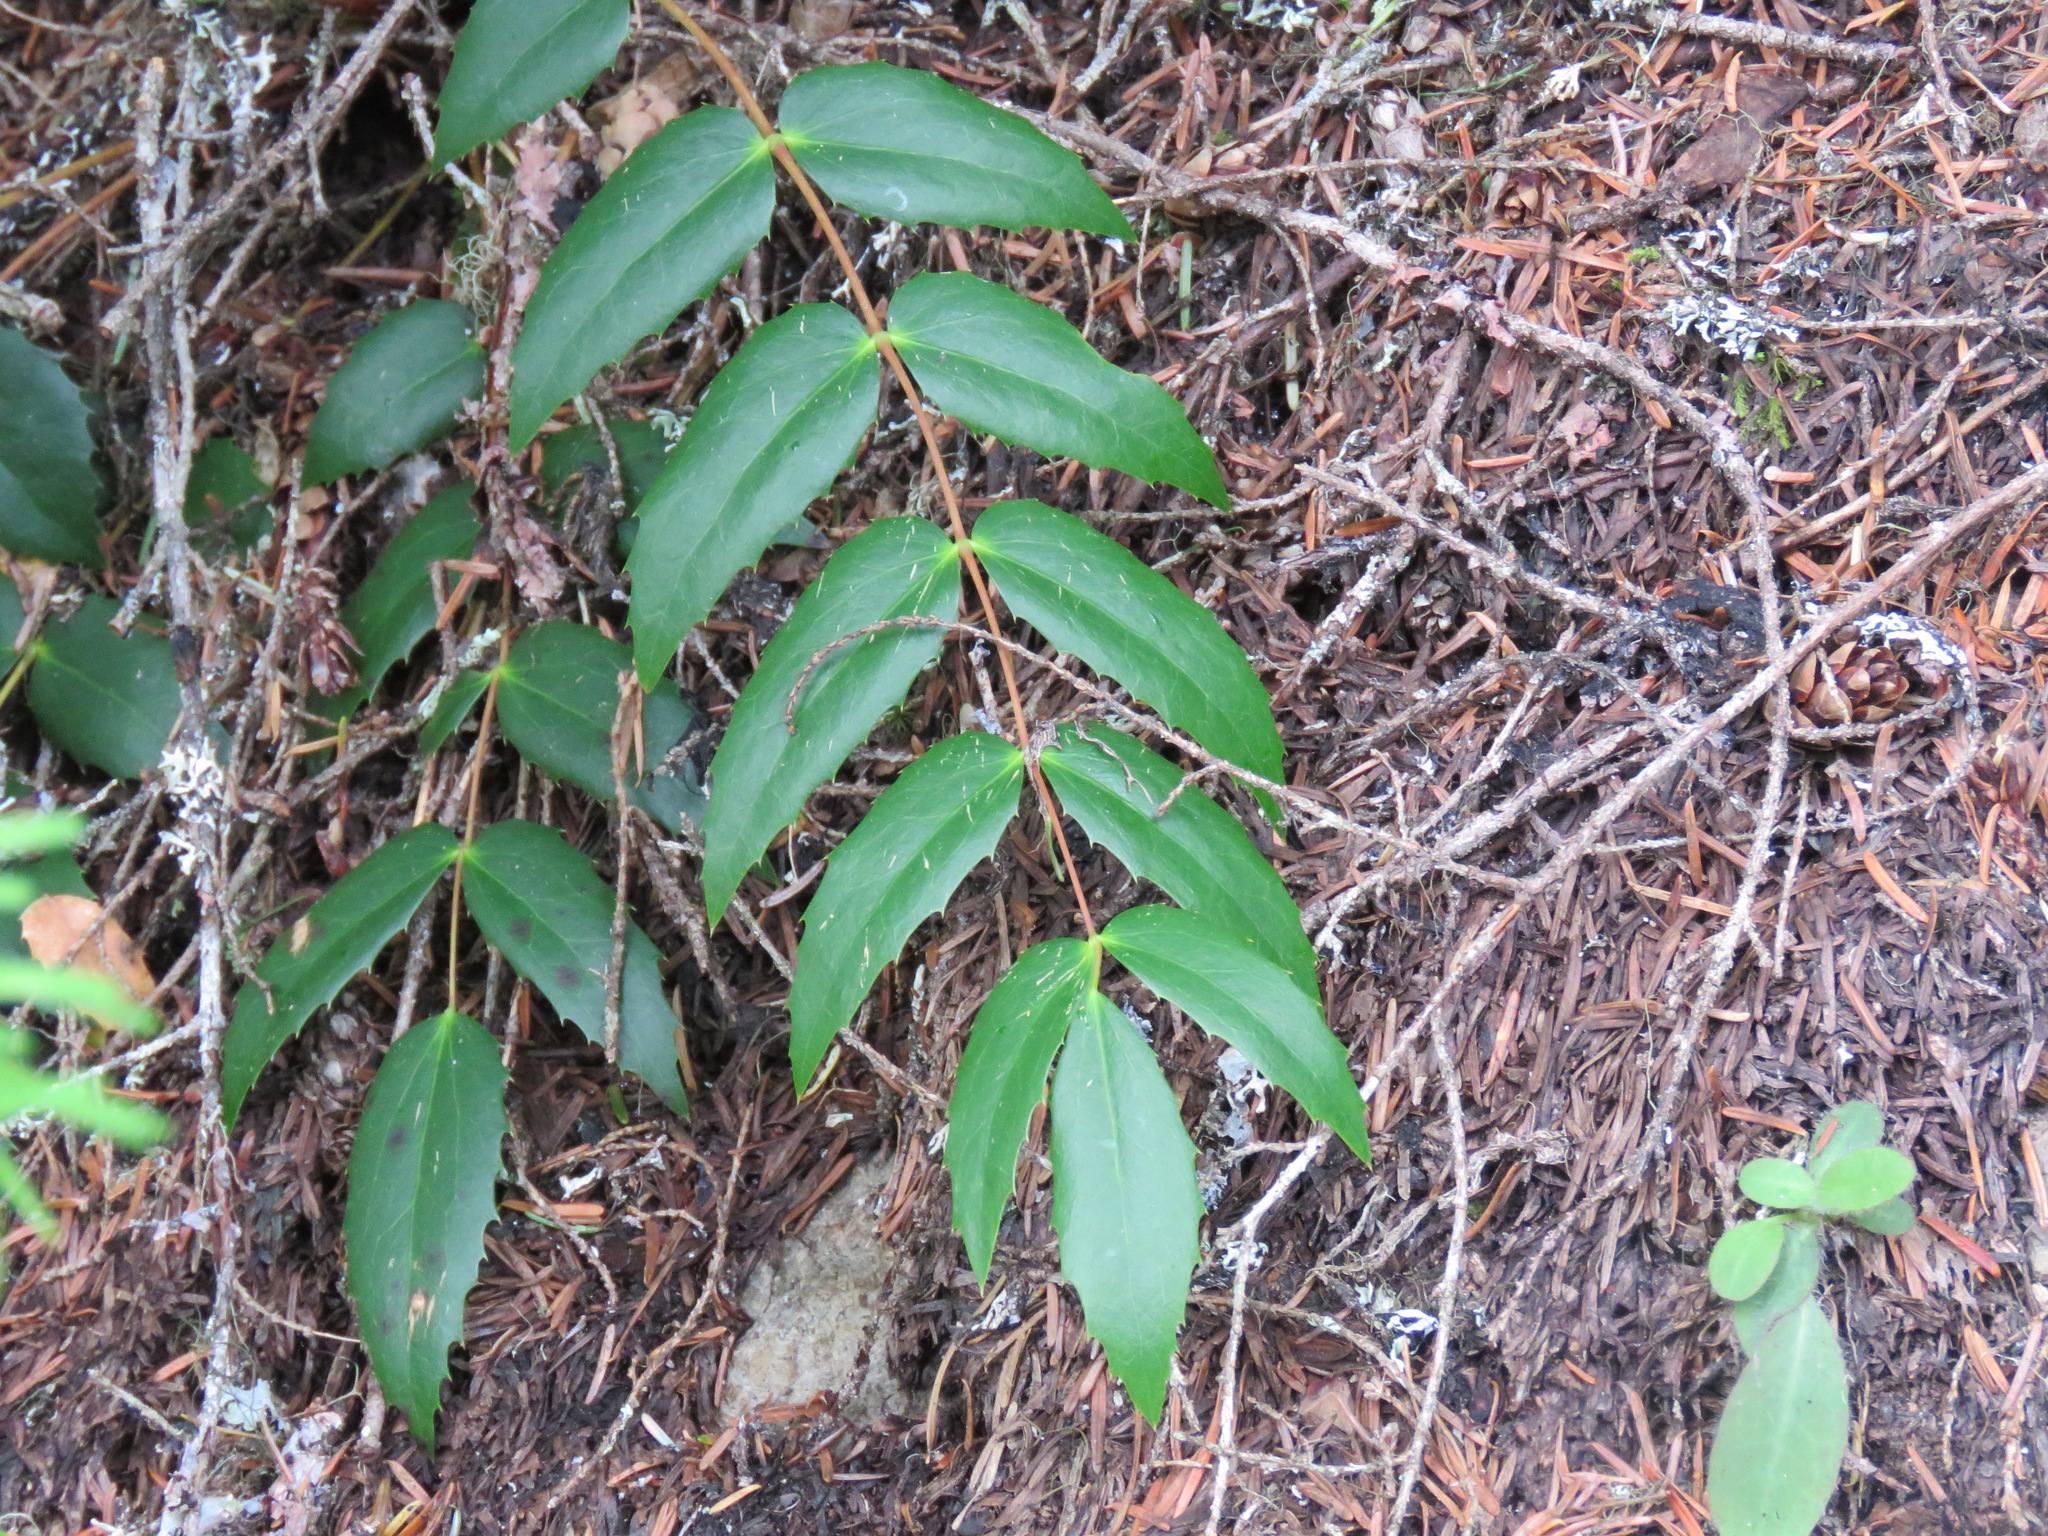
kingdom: Plantae
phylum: Tracheophyta
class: Magnoliopsida
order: Ranunculales
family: Berberidaceae
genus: Mahonia
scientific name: Mahonia nervosa
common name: Cascade oregon-grape
